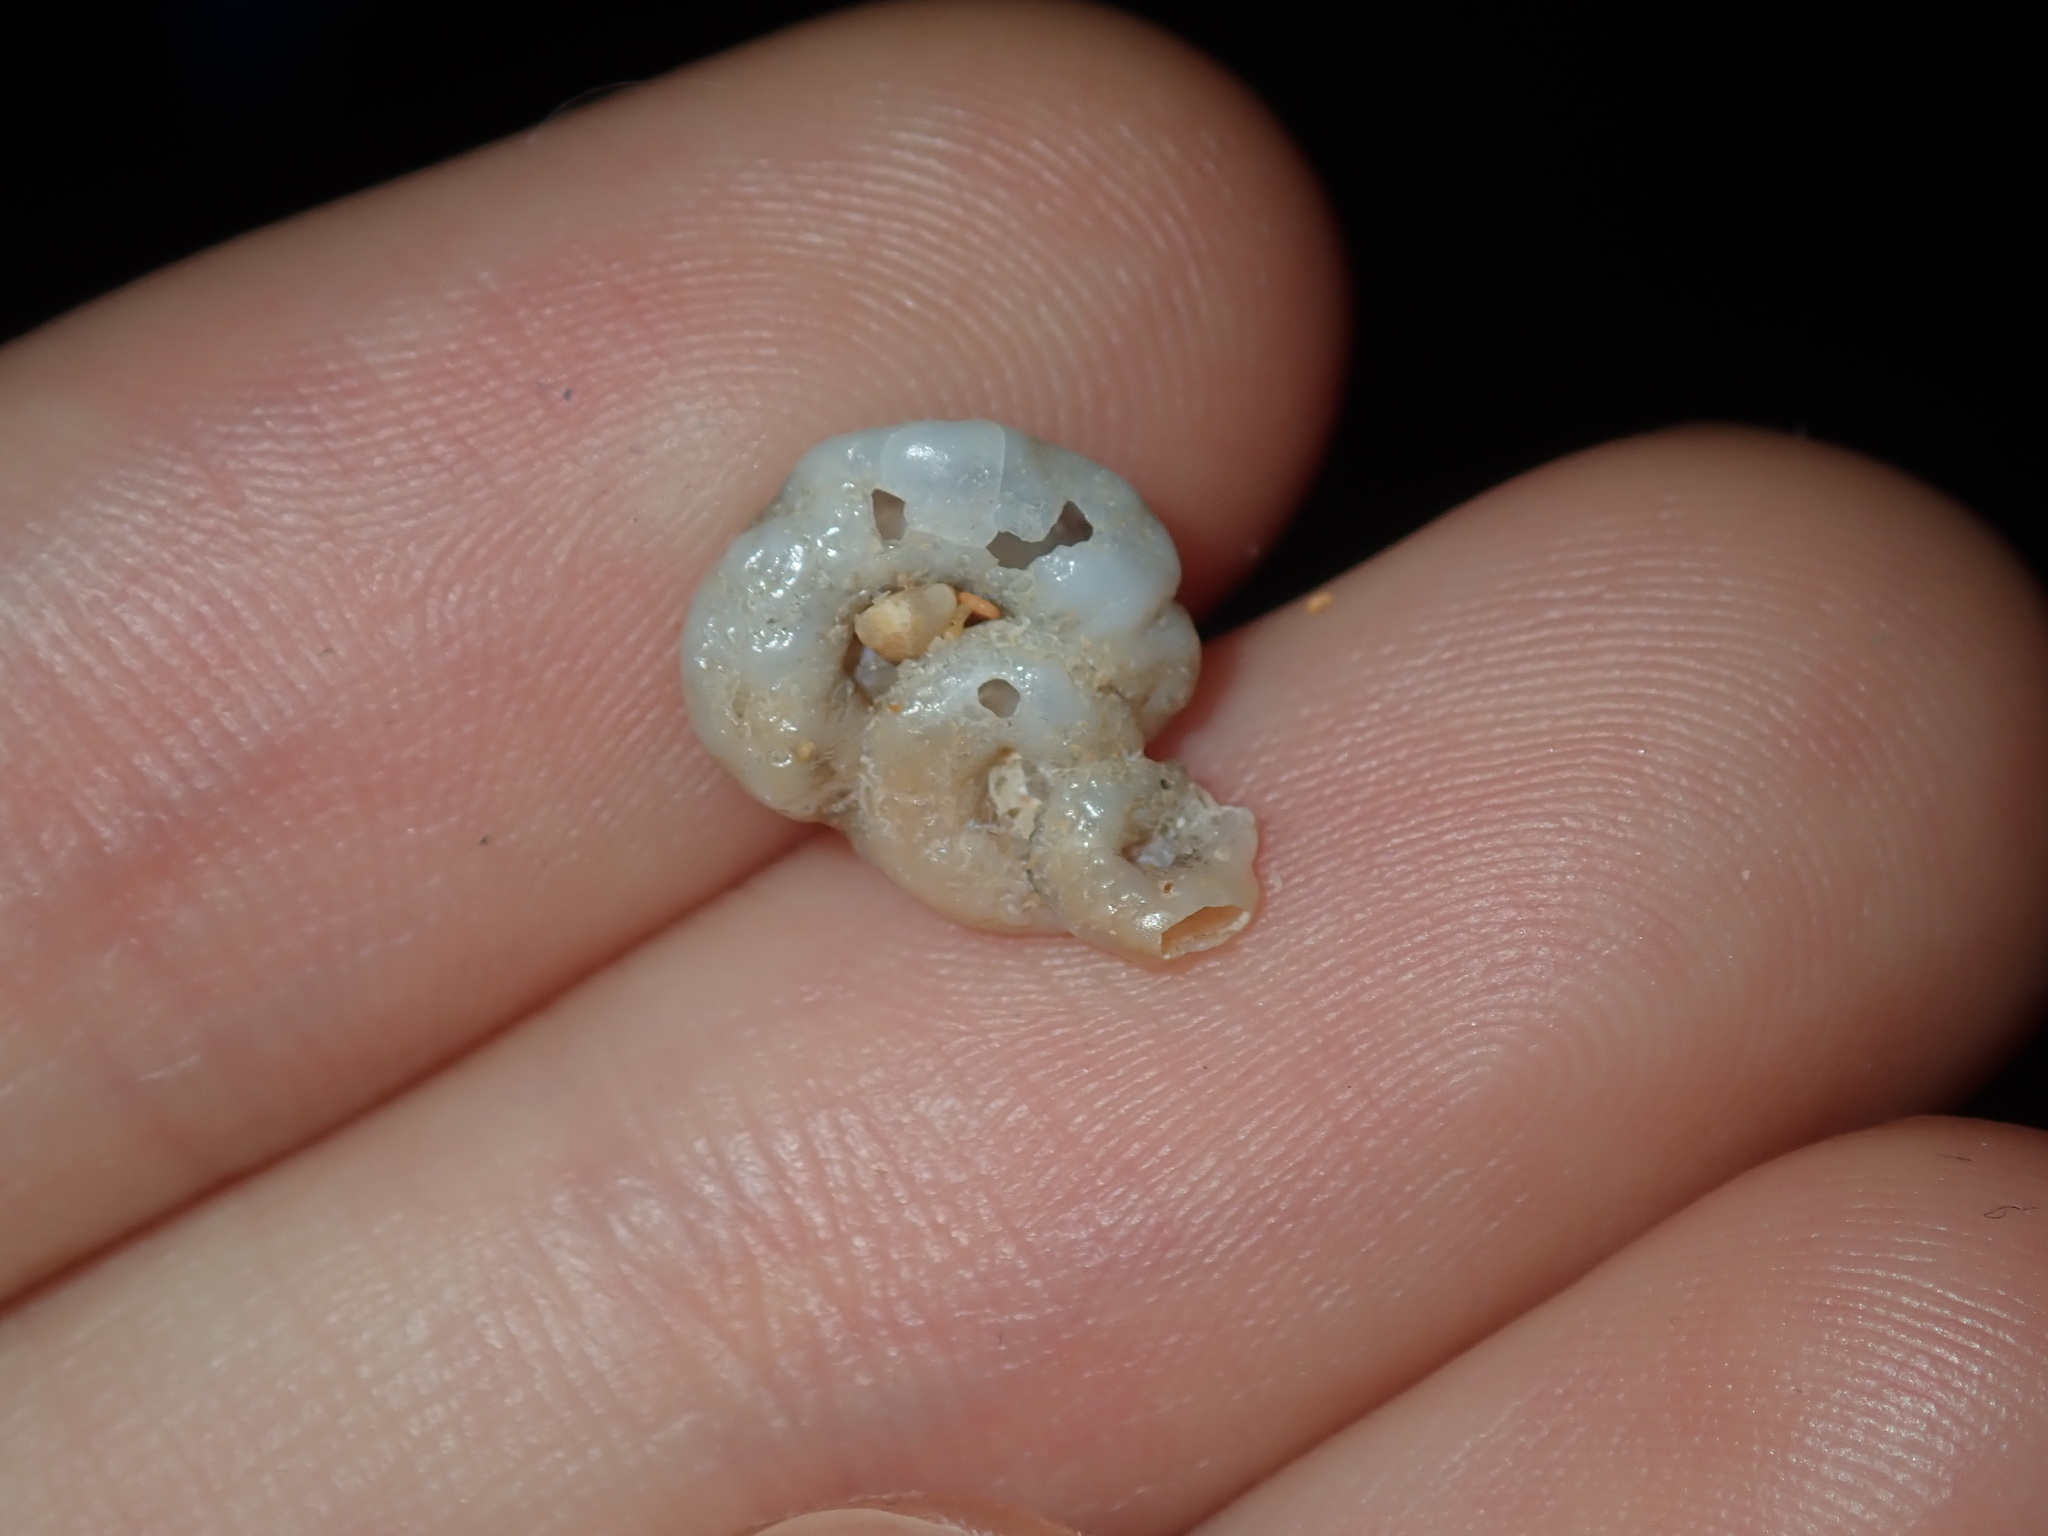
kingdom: Animalia
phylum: Mollusca
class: Gastropoda
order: Littorinimorpha
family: Vermetidae
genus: Thylacodes
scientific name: Thylacodes sipho
